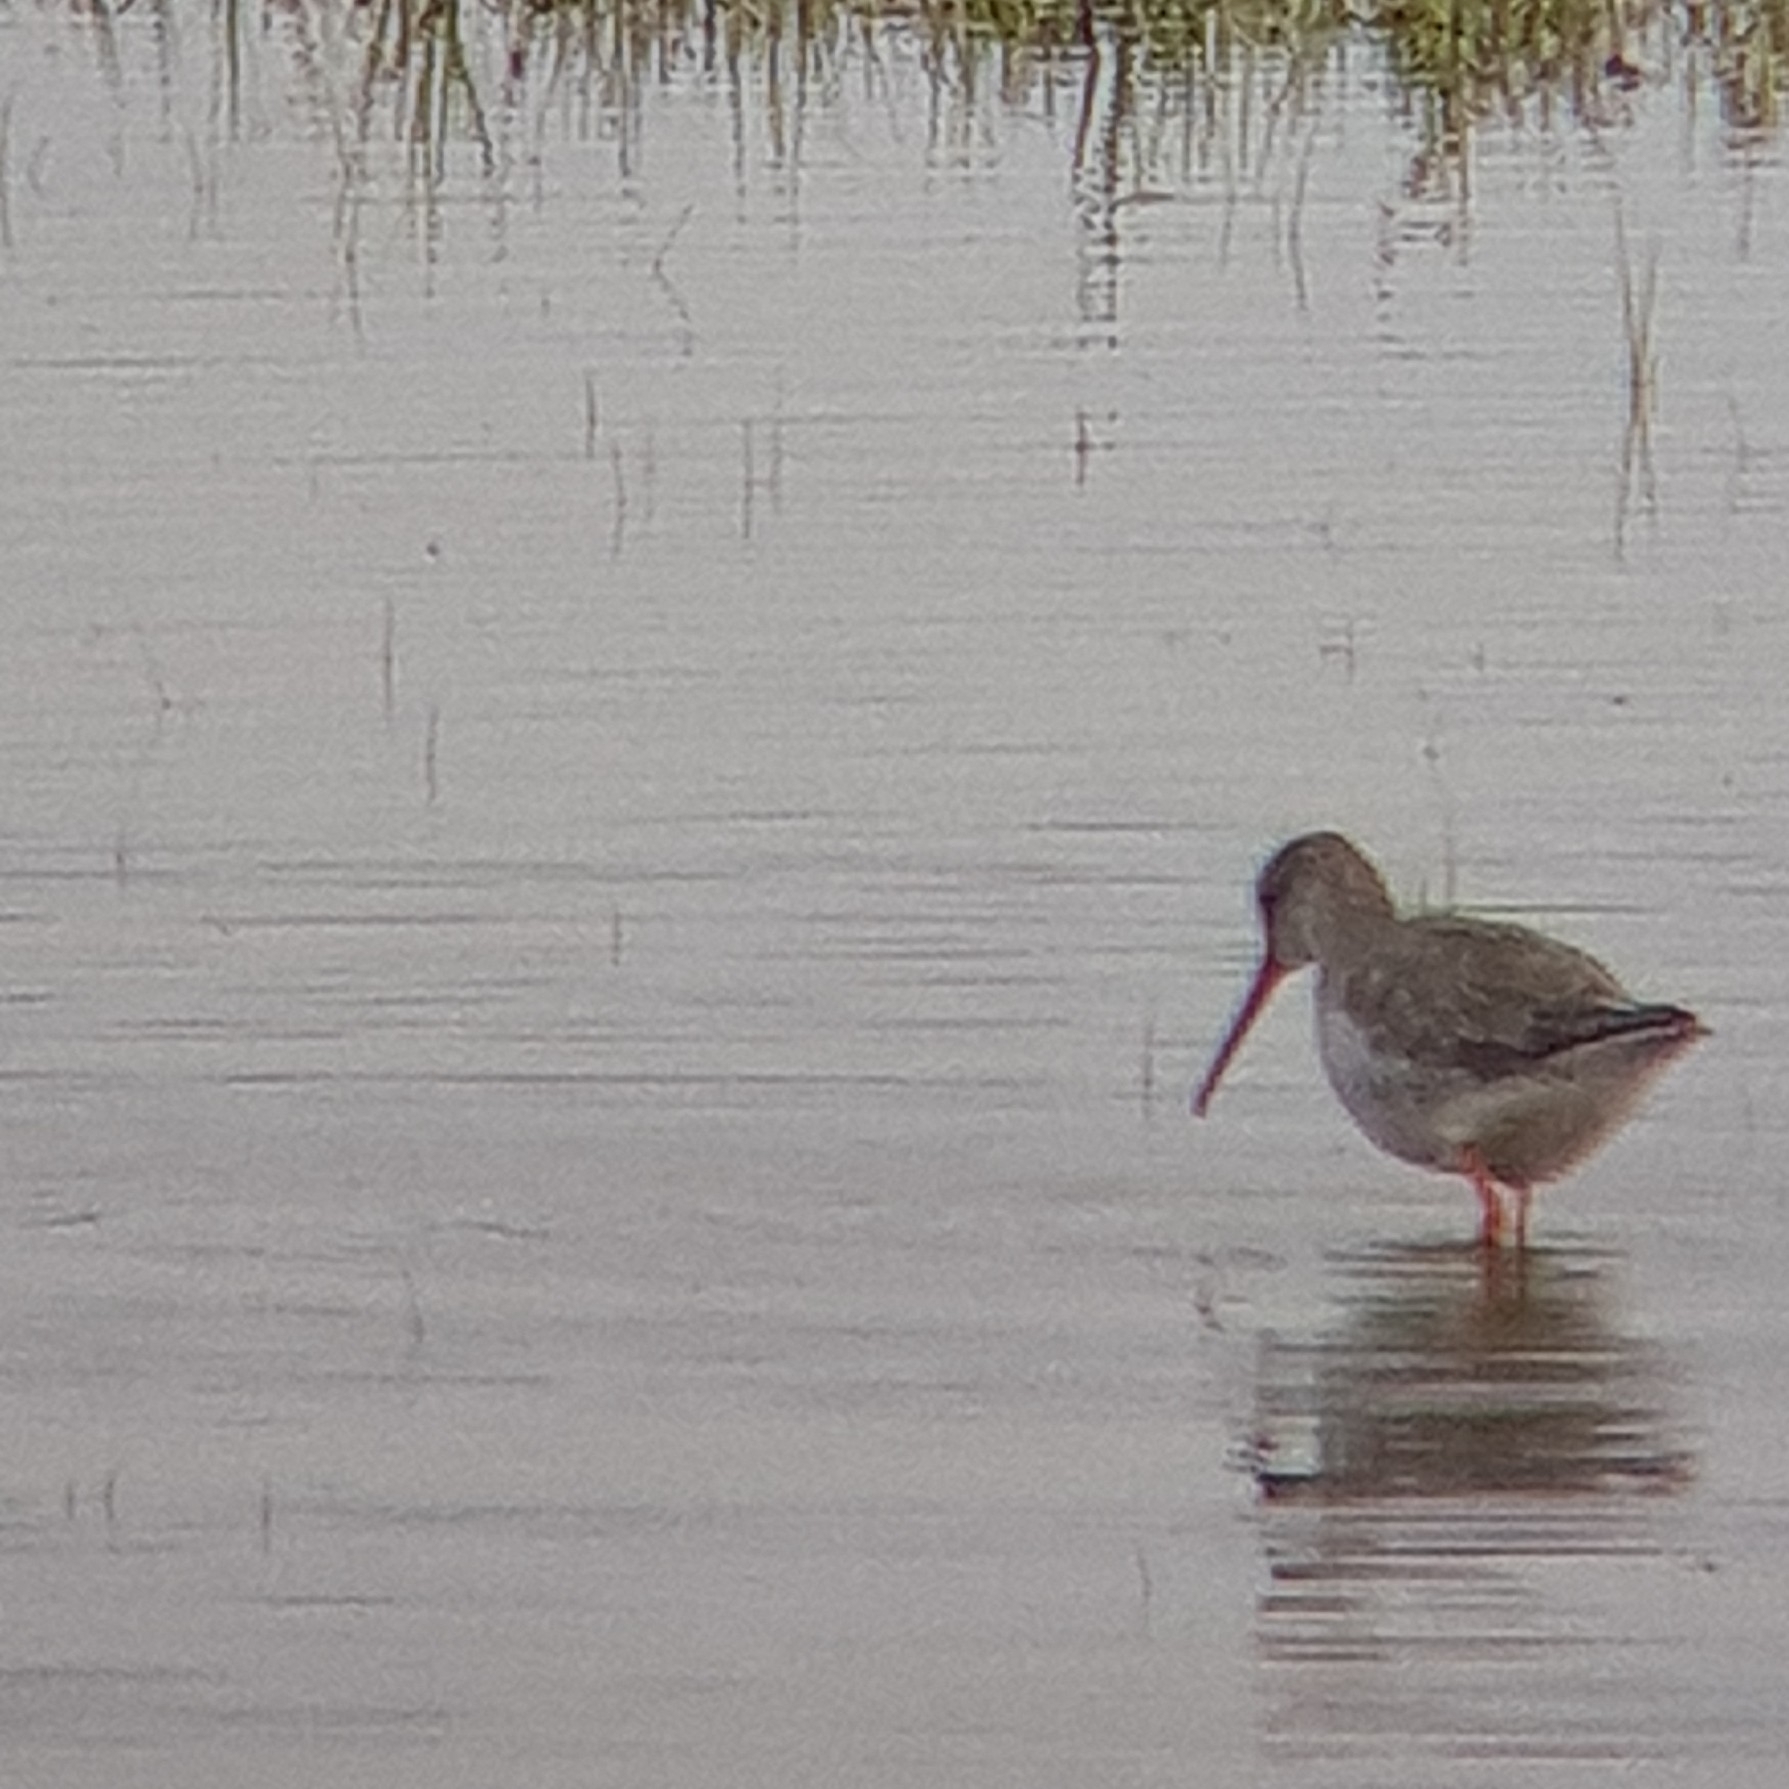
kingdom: Animalia
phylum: Chordata
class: Aves
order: Charadriiformes
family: Scolopacidae
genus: Tringa
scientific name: Tringa erythropus
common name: Spotted redshank
